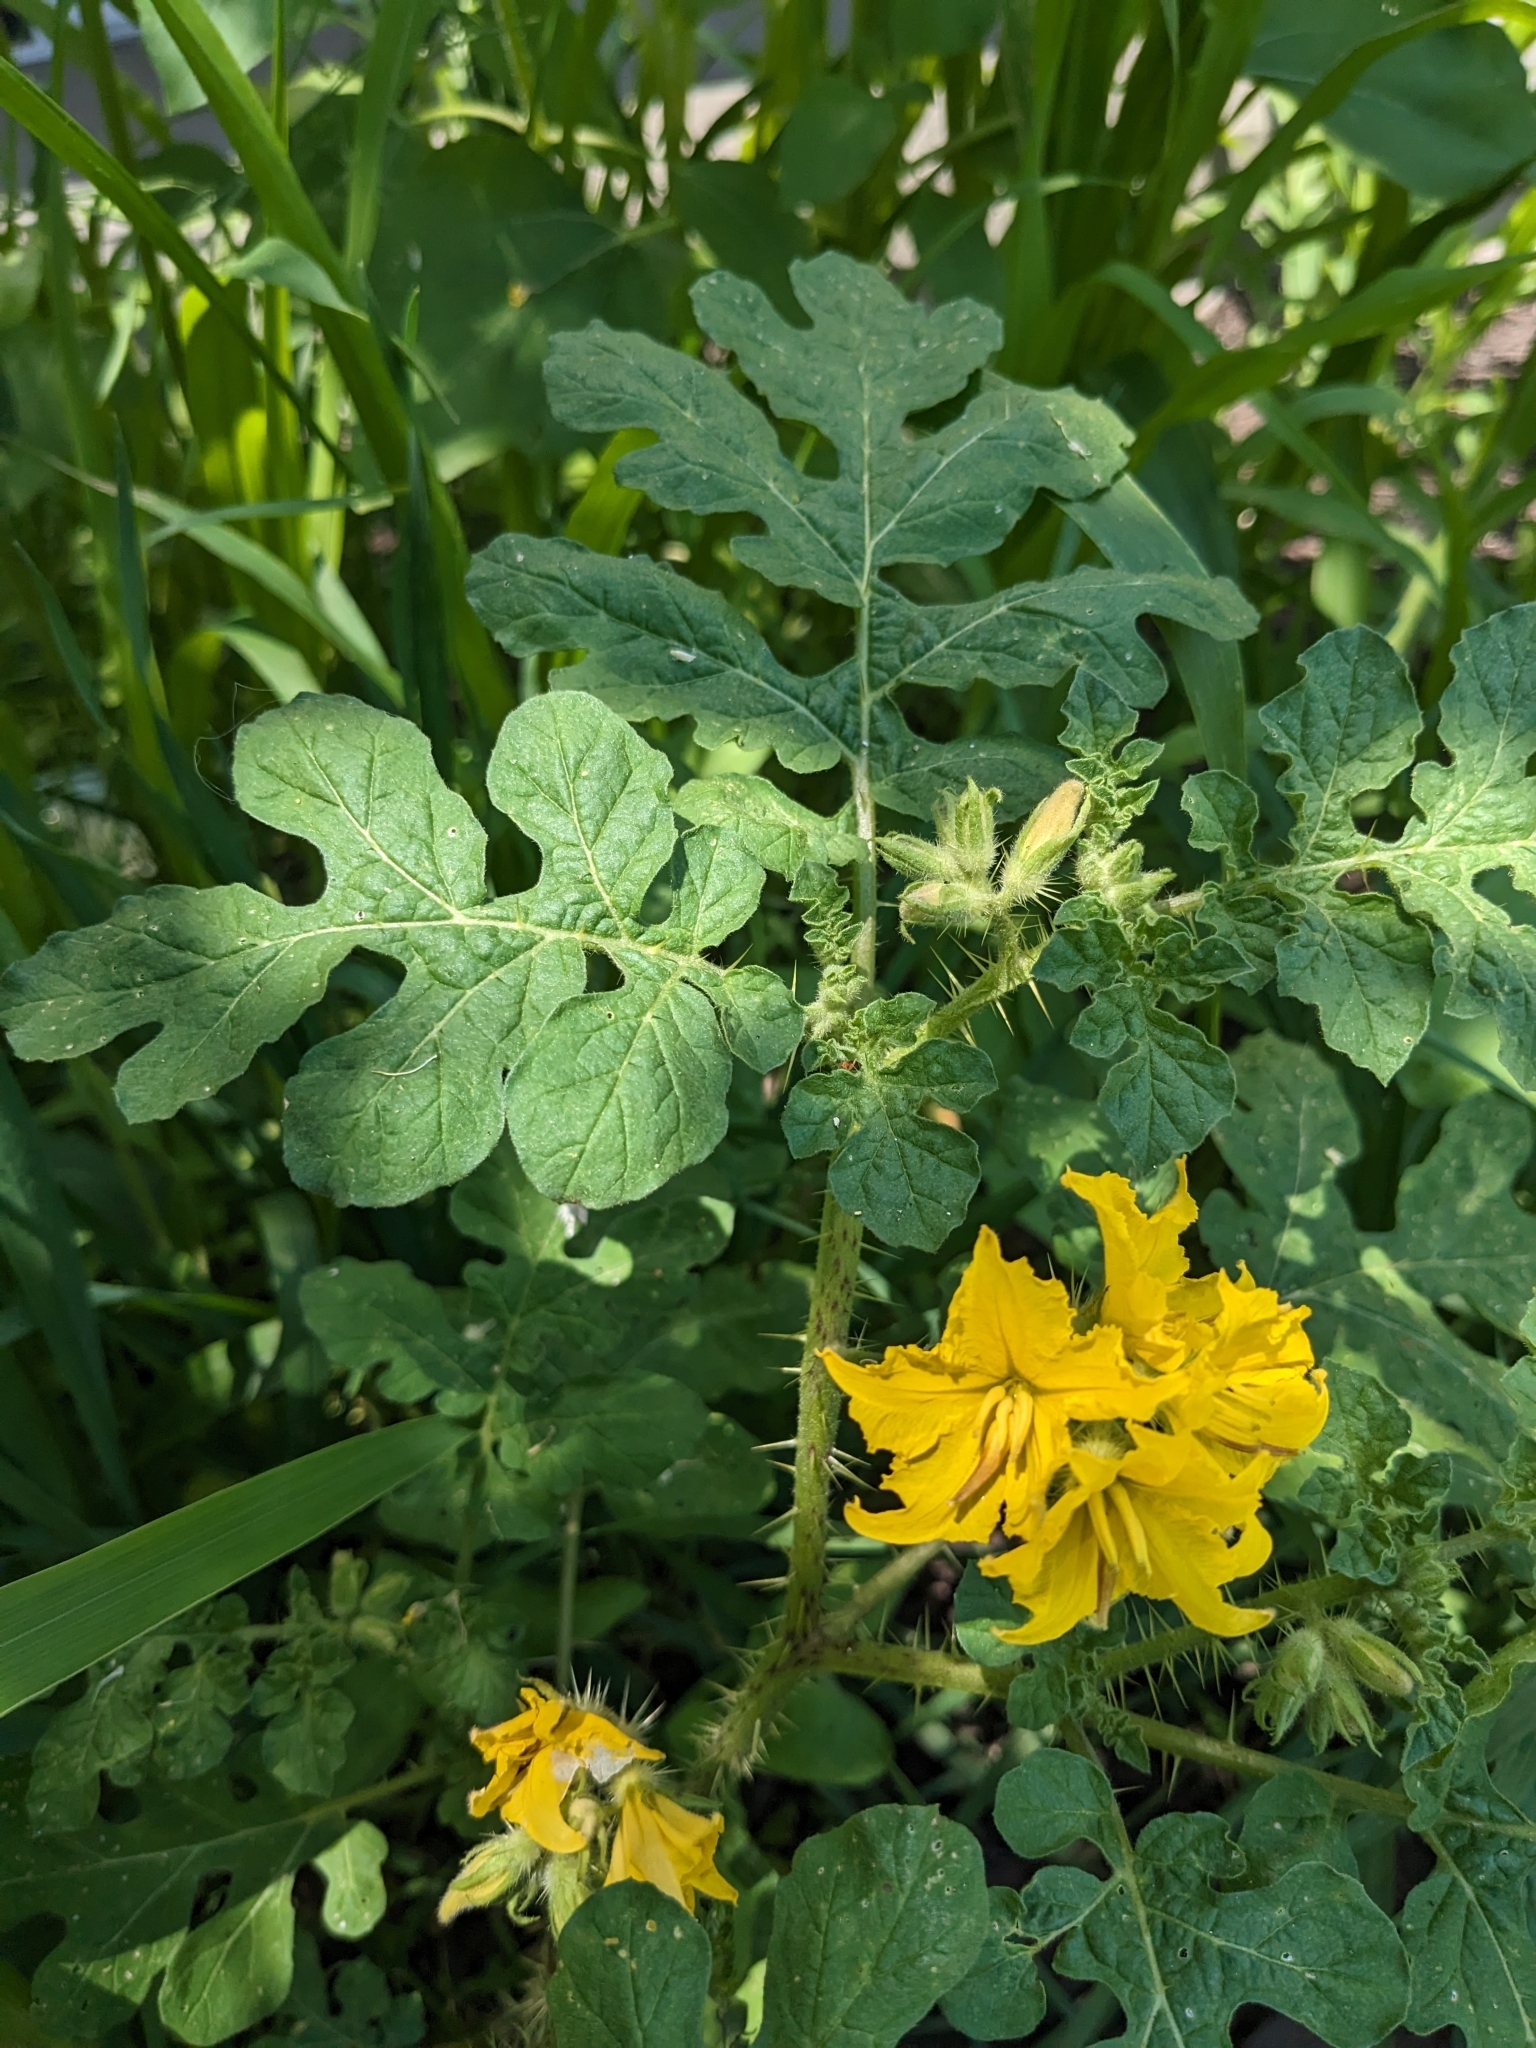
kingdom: Plantae
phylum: Tracheophyta
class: Magnoliopsida
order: Solanales
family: Solanaceae
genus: Solanum
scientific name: Solanum angustifolium
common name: Buffalobur nightshade
